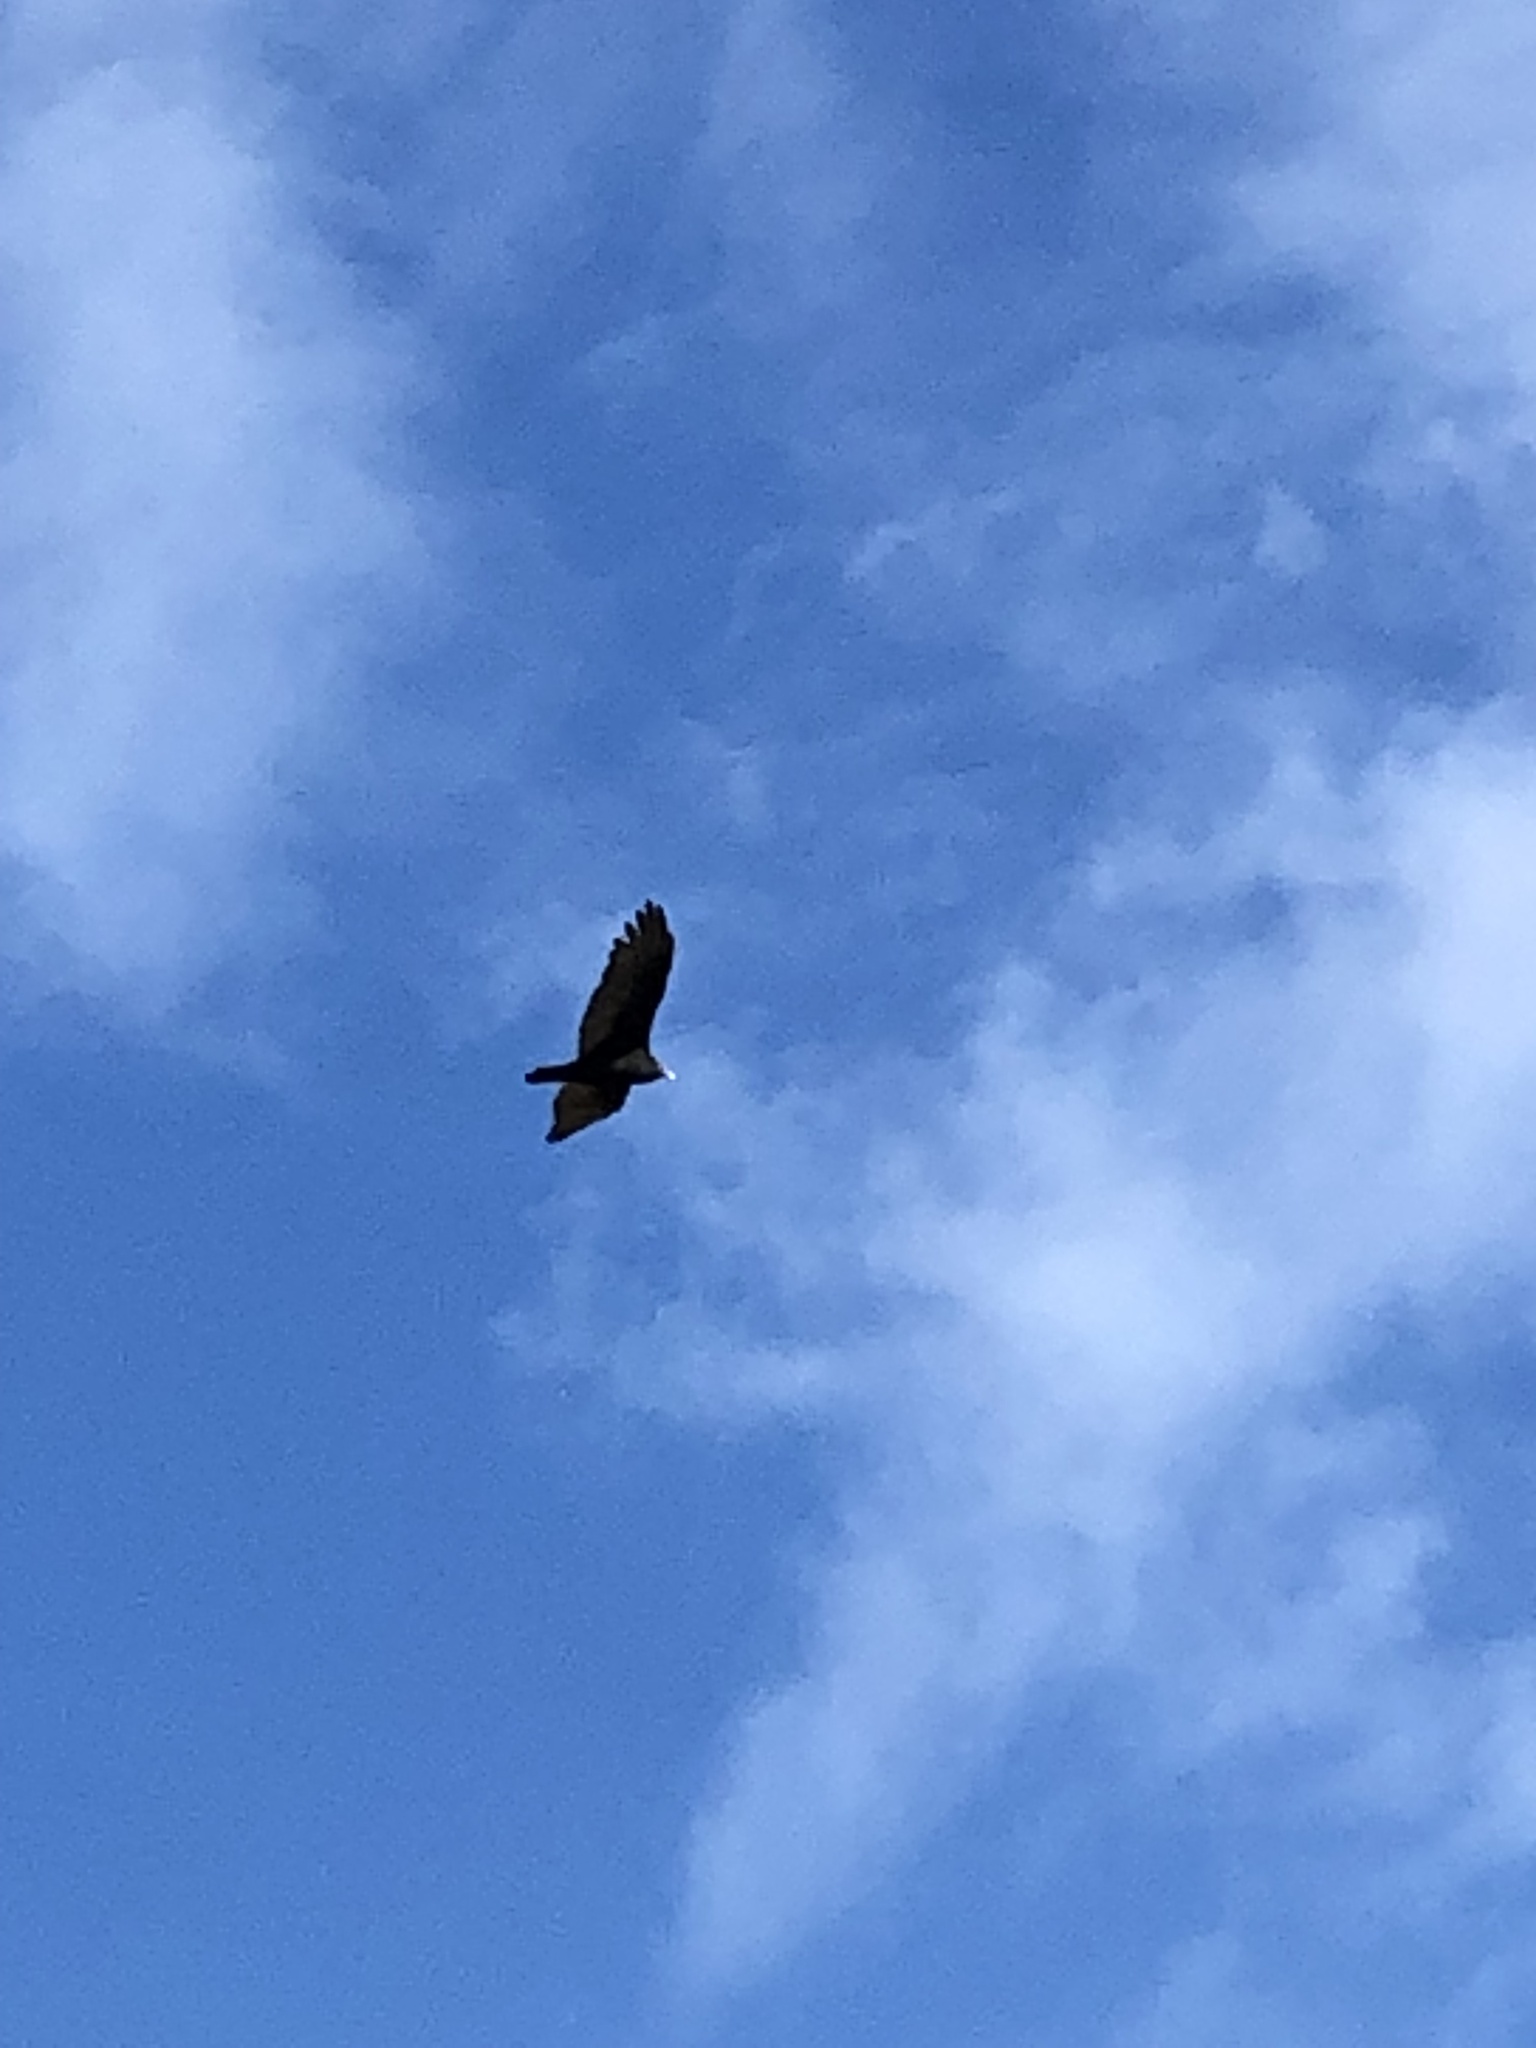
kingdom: Animalia
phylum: Chordata
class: Aves
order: Accipitriformes
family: Cathartidae
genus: Cathartes
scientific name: Cathartes aura
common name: Turkey vulture
